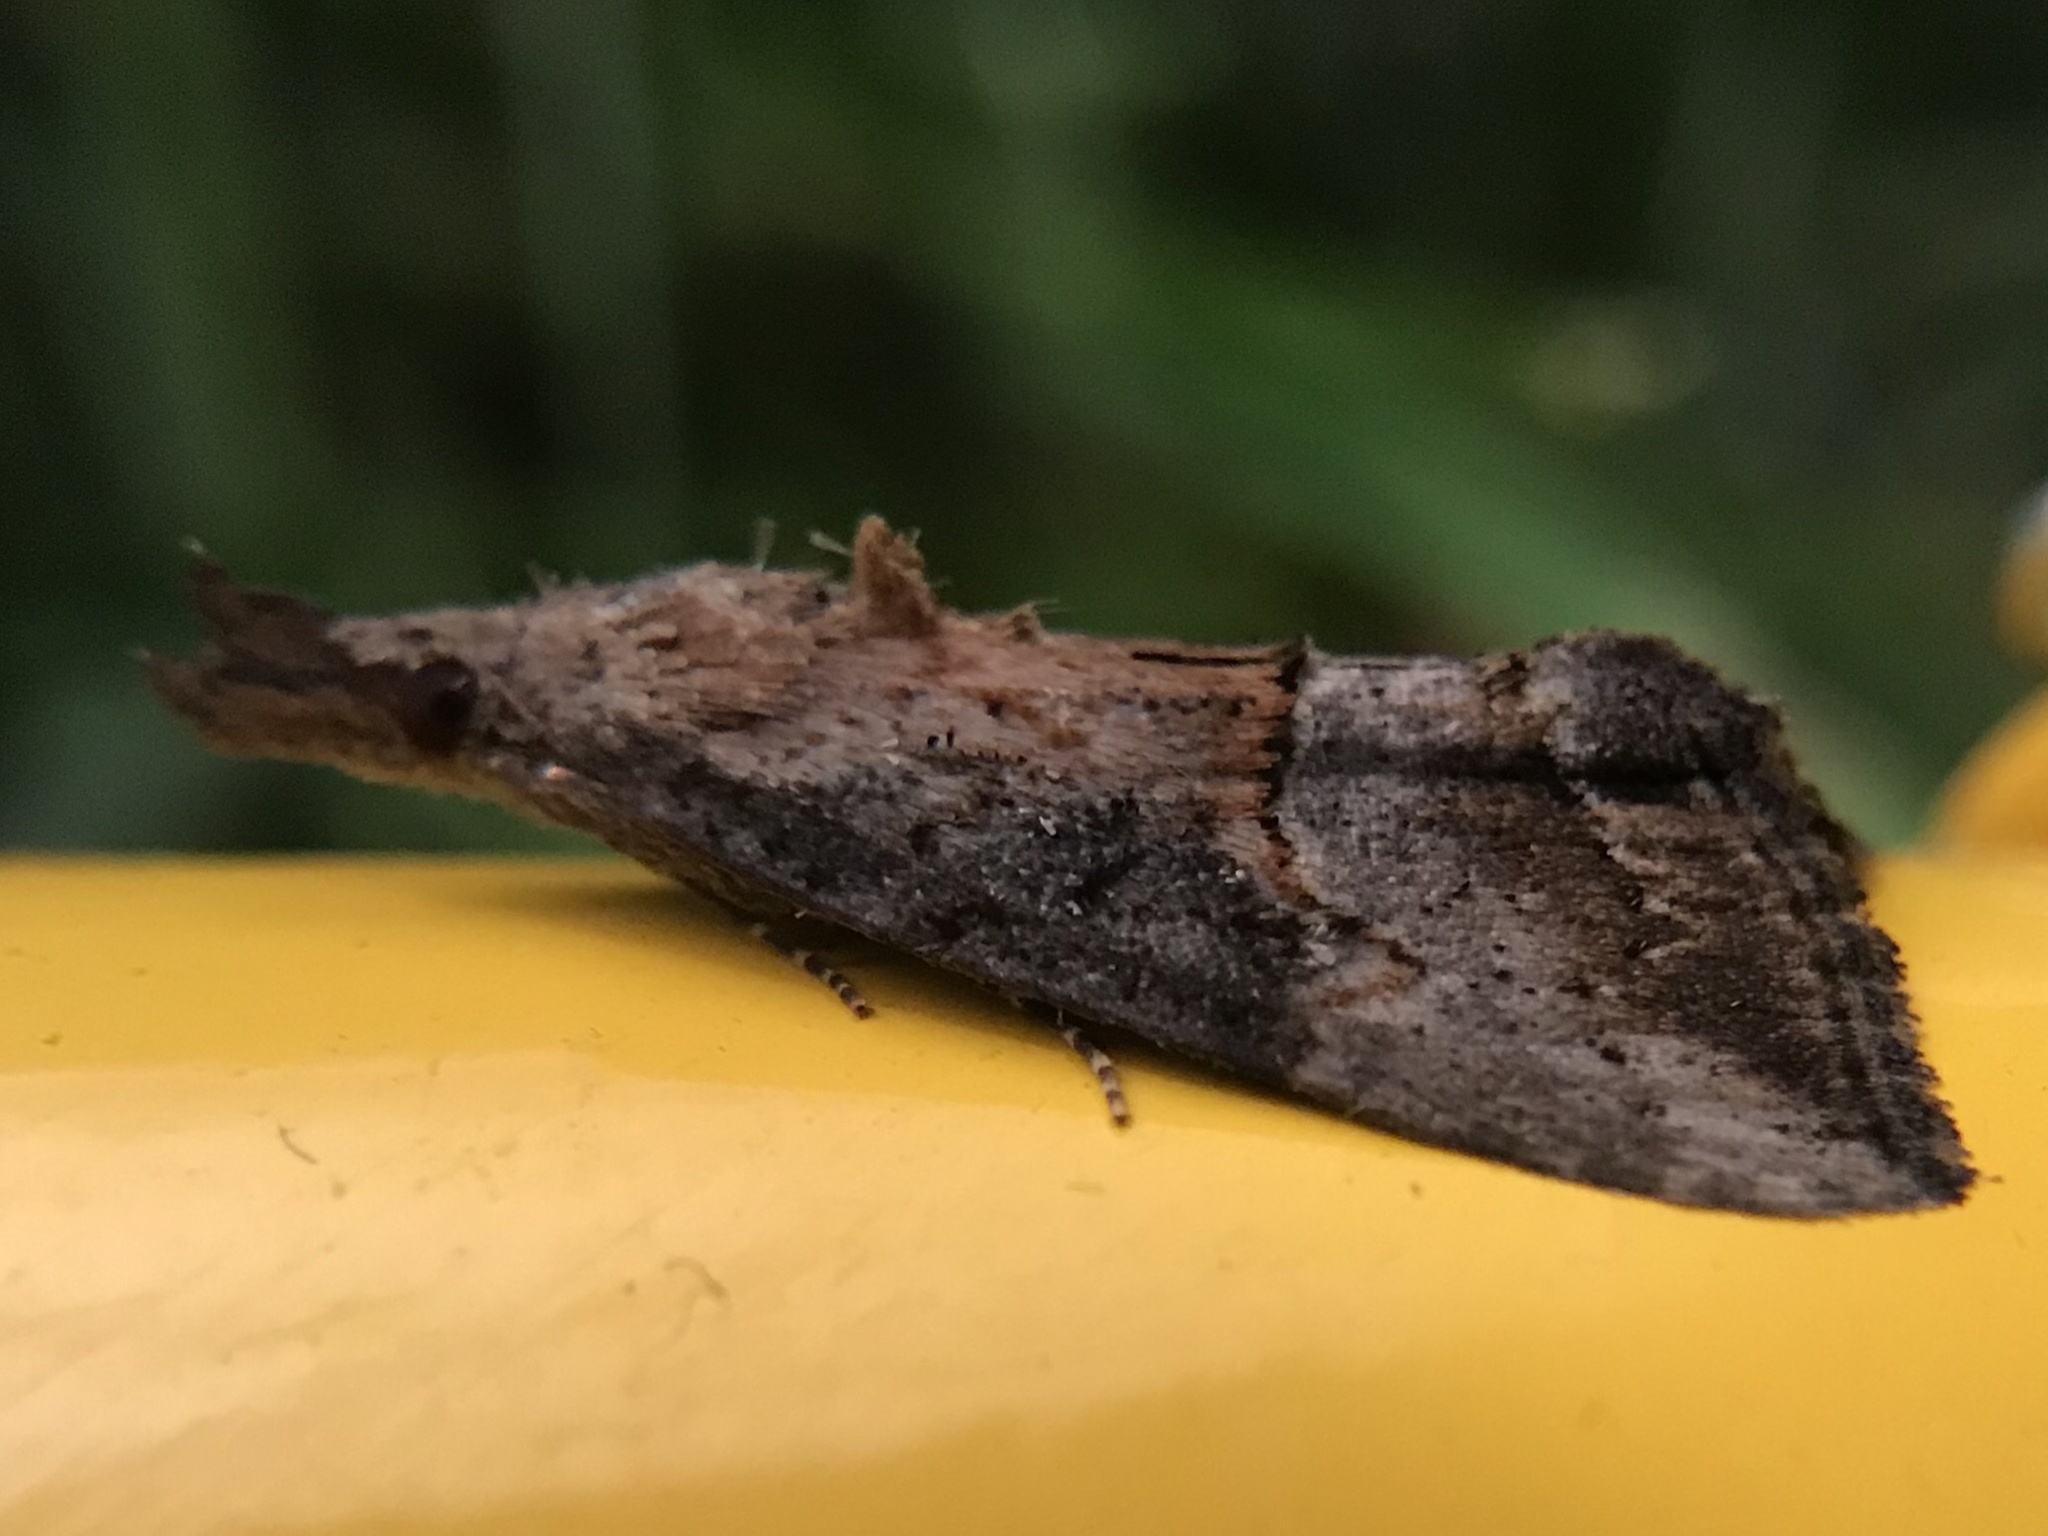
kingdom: Animalia
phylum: Arthropoda
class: Insecta
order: Lepidoptera
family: Erebidae
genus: Hypena
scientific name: Hypena scabra
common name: Green cloverworm
